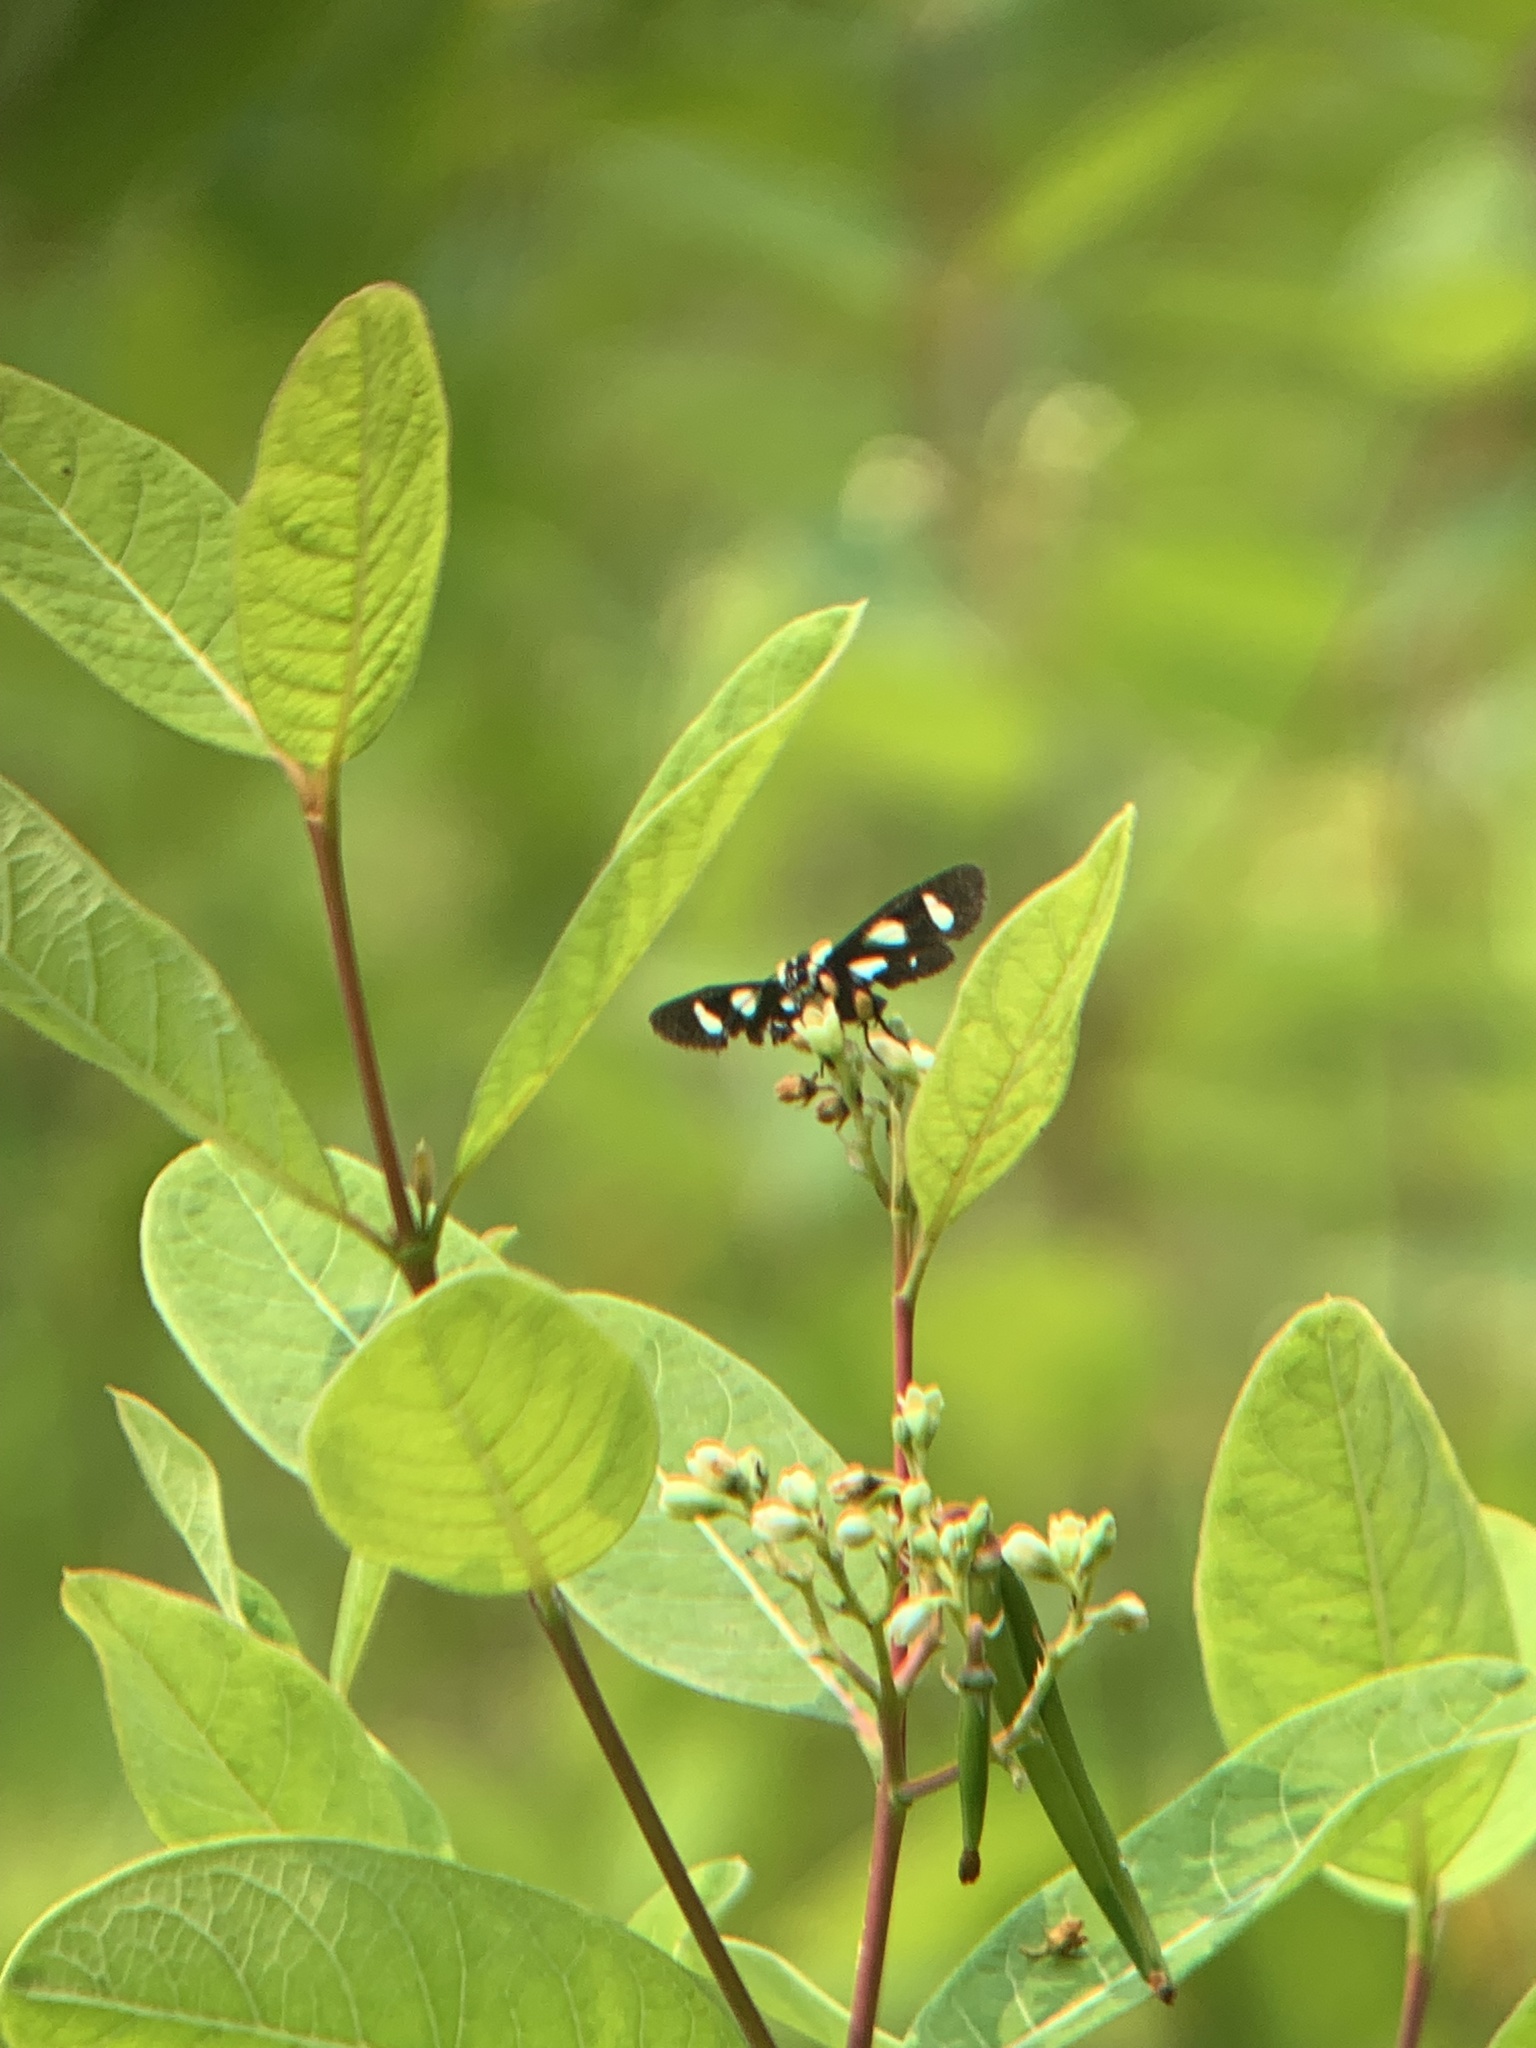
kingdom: Animalia
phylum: Arthropoda
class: Insecta
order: Lepidoptera
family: Noctuidae
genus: Alypia
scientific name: Alypia octomaculata
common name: Eight-spotted forester
